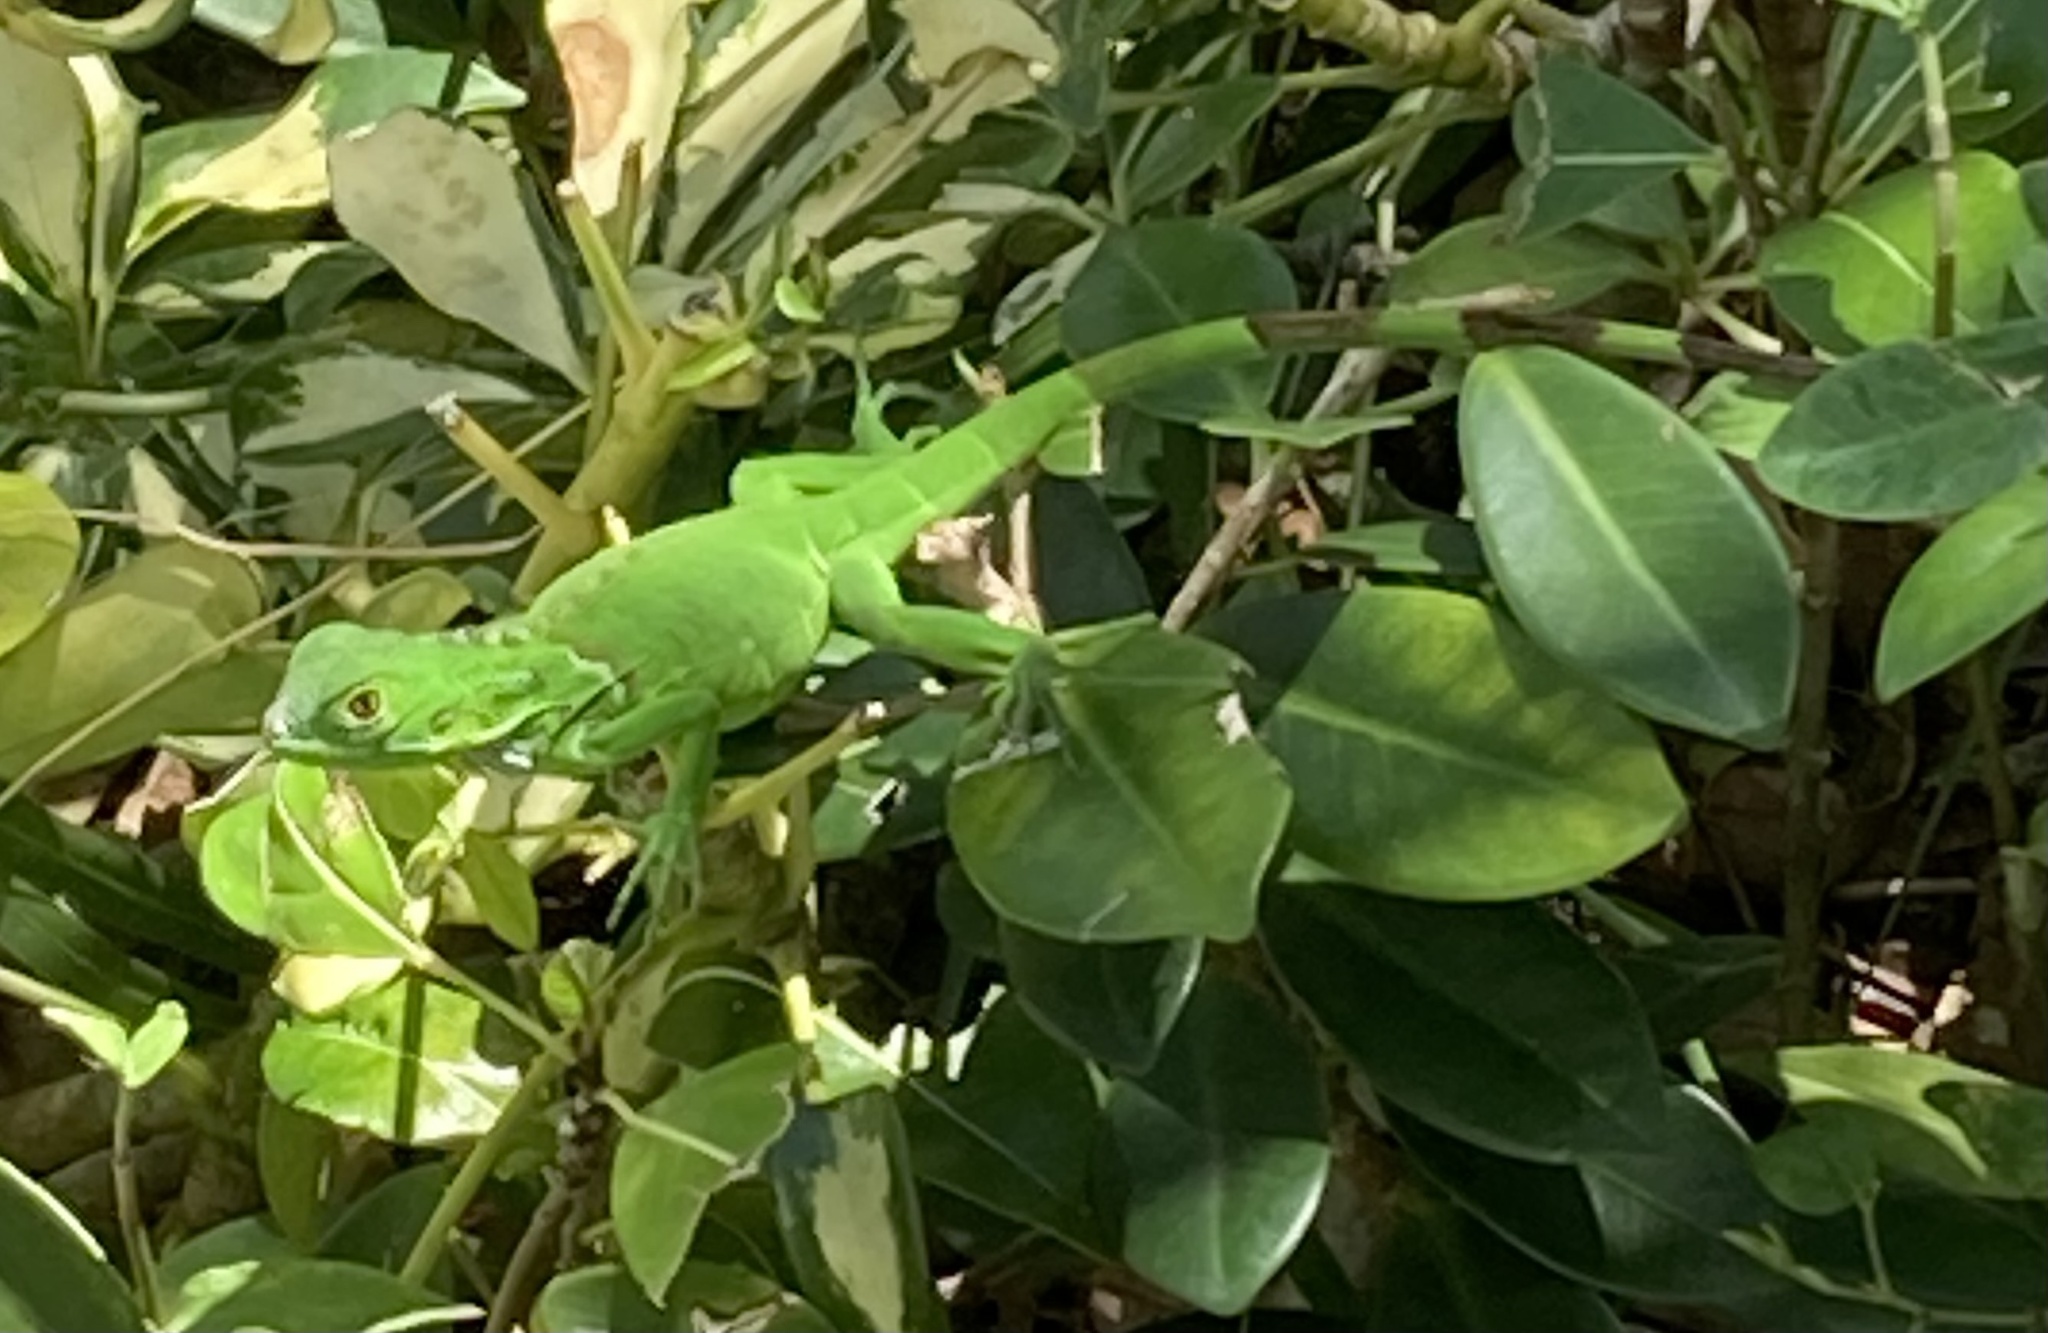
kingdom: Animalia
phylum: Chordata
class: Squamata
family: Iguanidae
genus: Iguana
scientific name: Iguana iguana
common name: Green iguana
